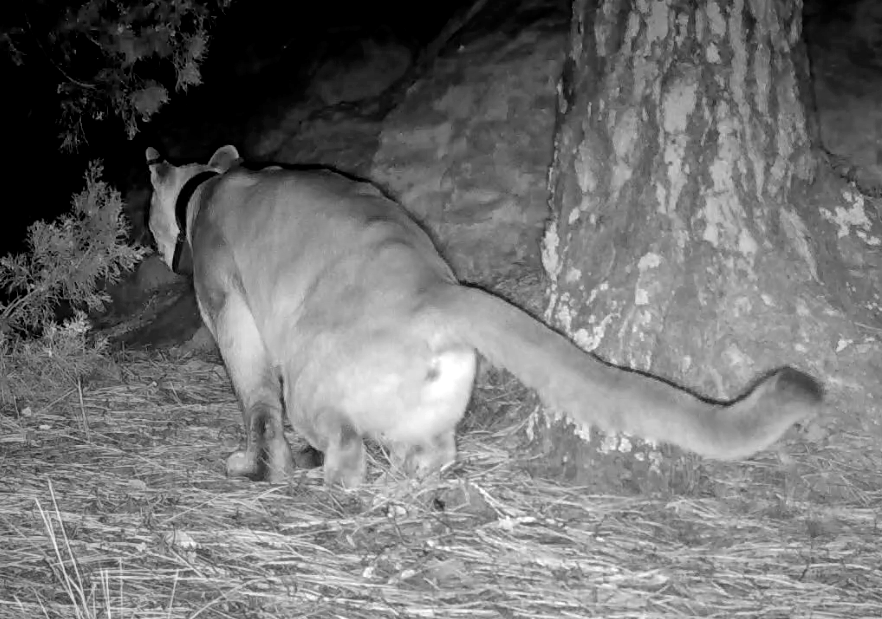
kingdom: Animalia
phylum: Chordata
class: Mammalia
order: Carnivora
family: Felidae
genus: Puma
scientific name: Puma concolor
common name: Puma
